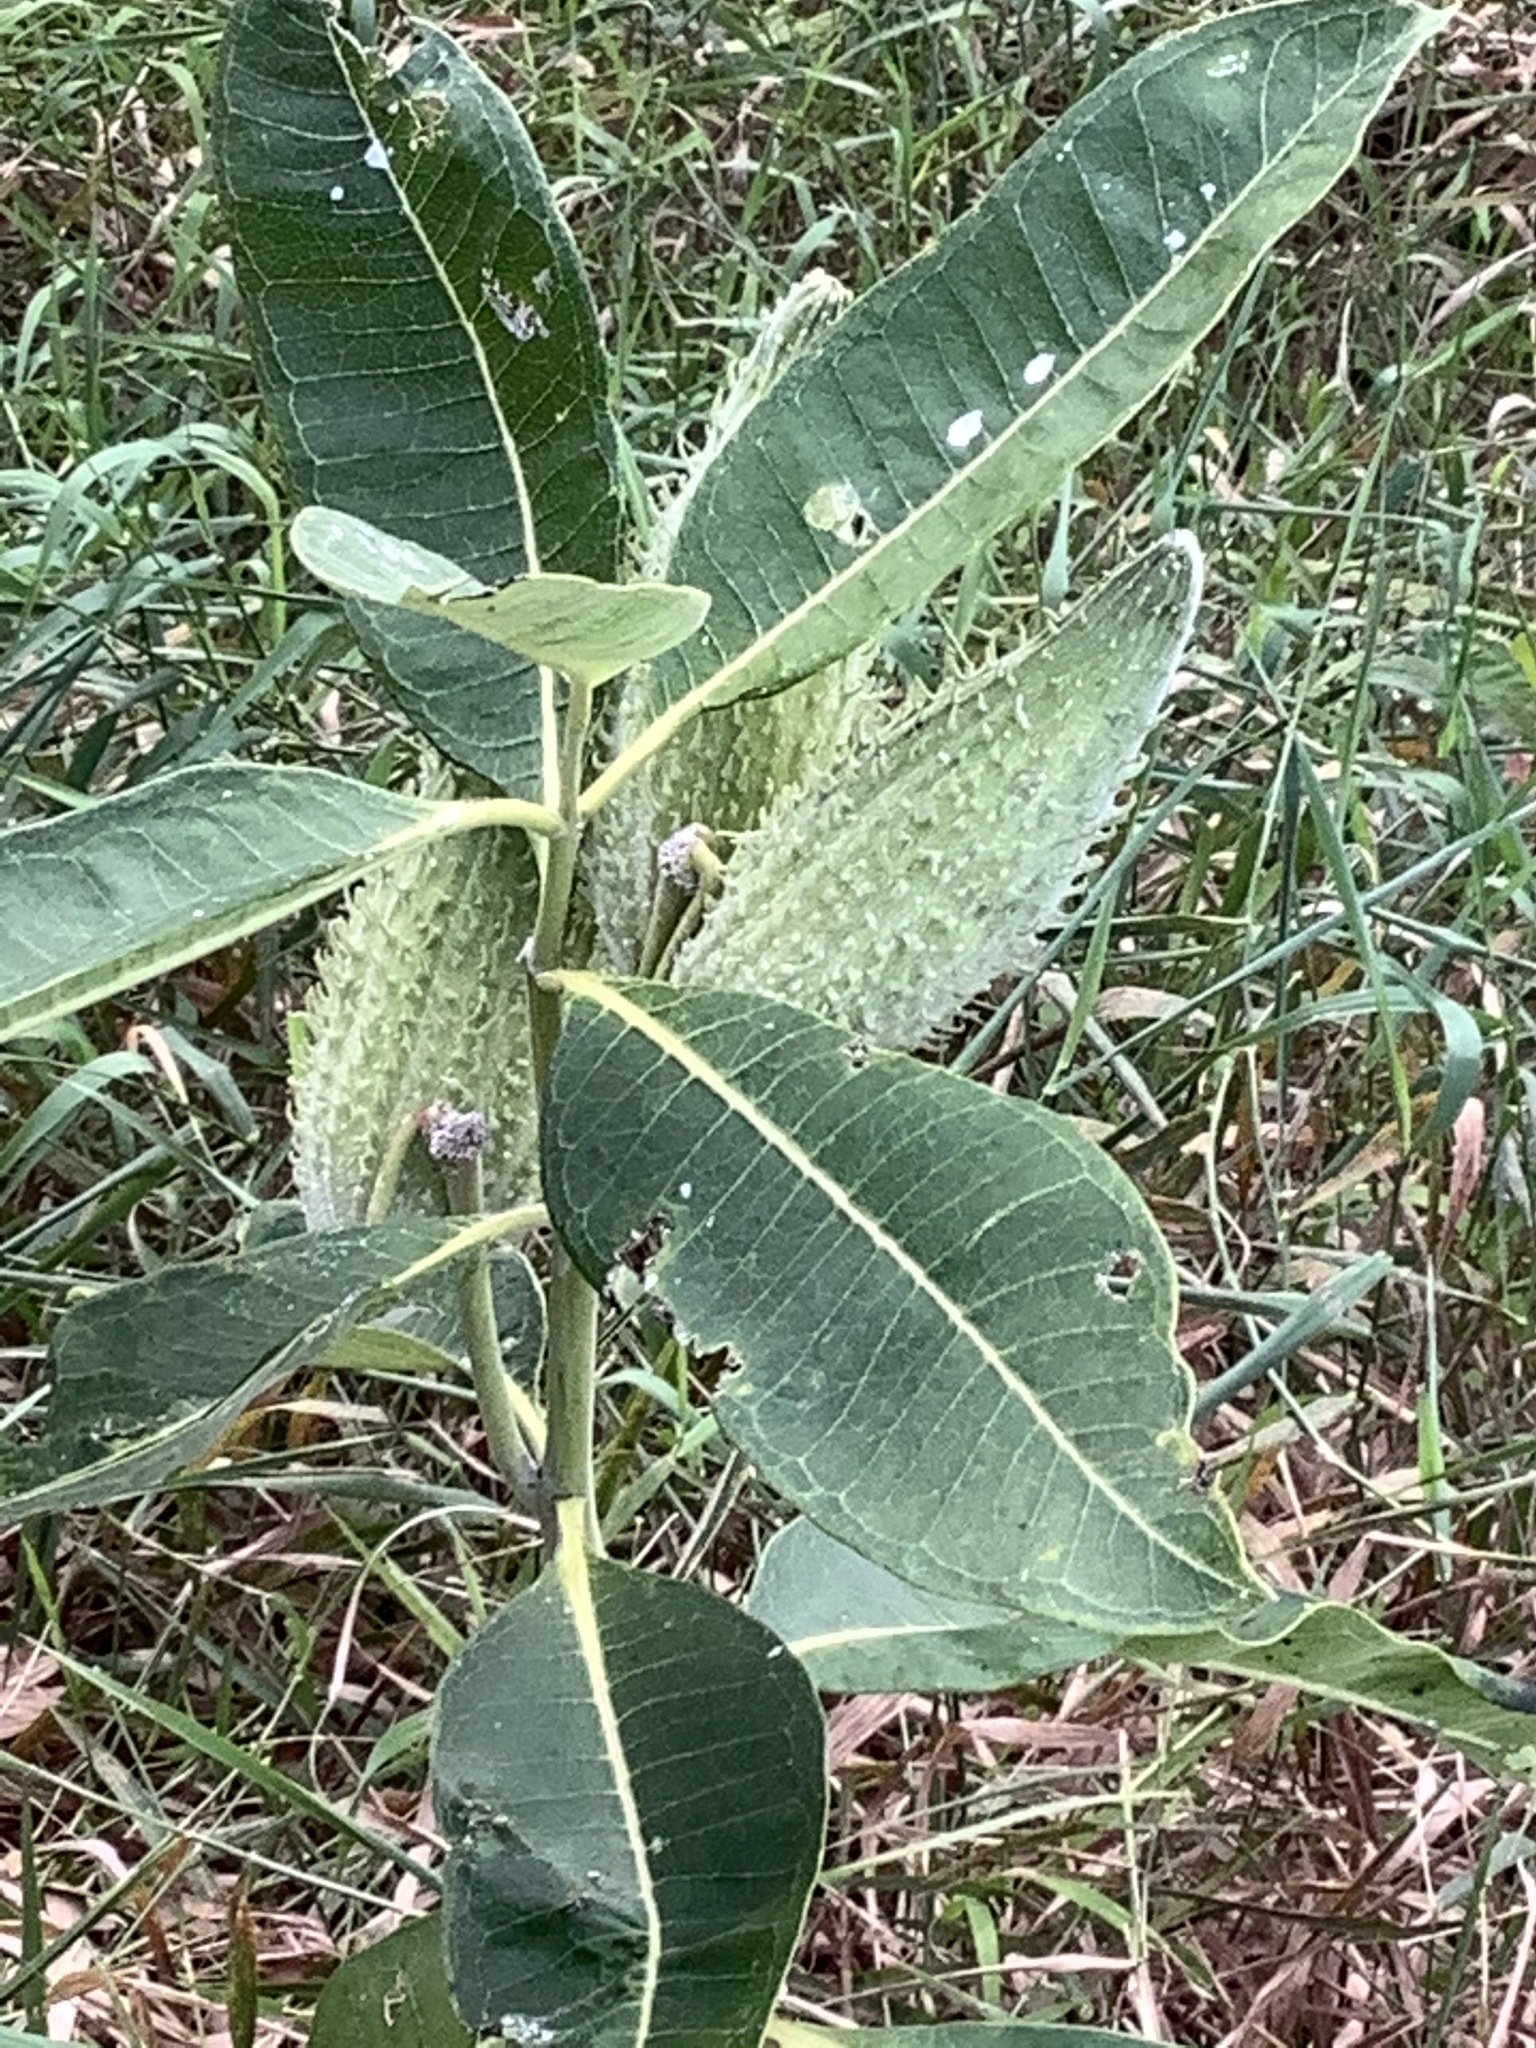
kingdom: Plantae
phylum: Tracheophyta
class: Magnoliopsida
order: Gentianales
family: Apocynaceae
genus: Asclepias
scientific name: Asclepias syriaca
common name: Common milkweed
